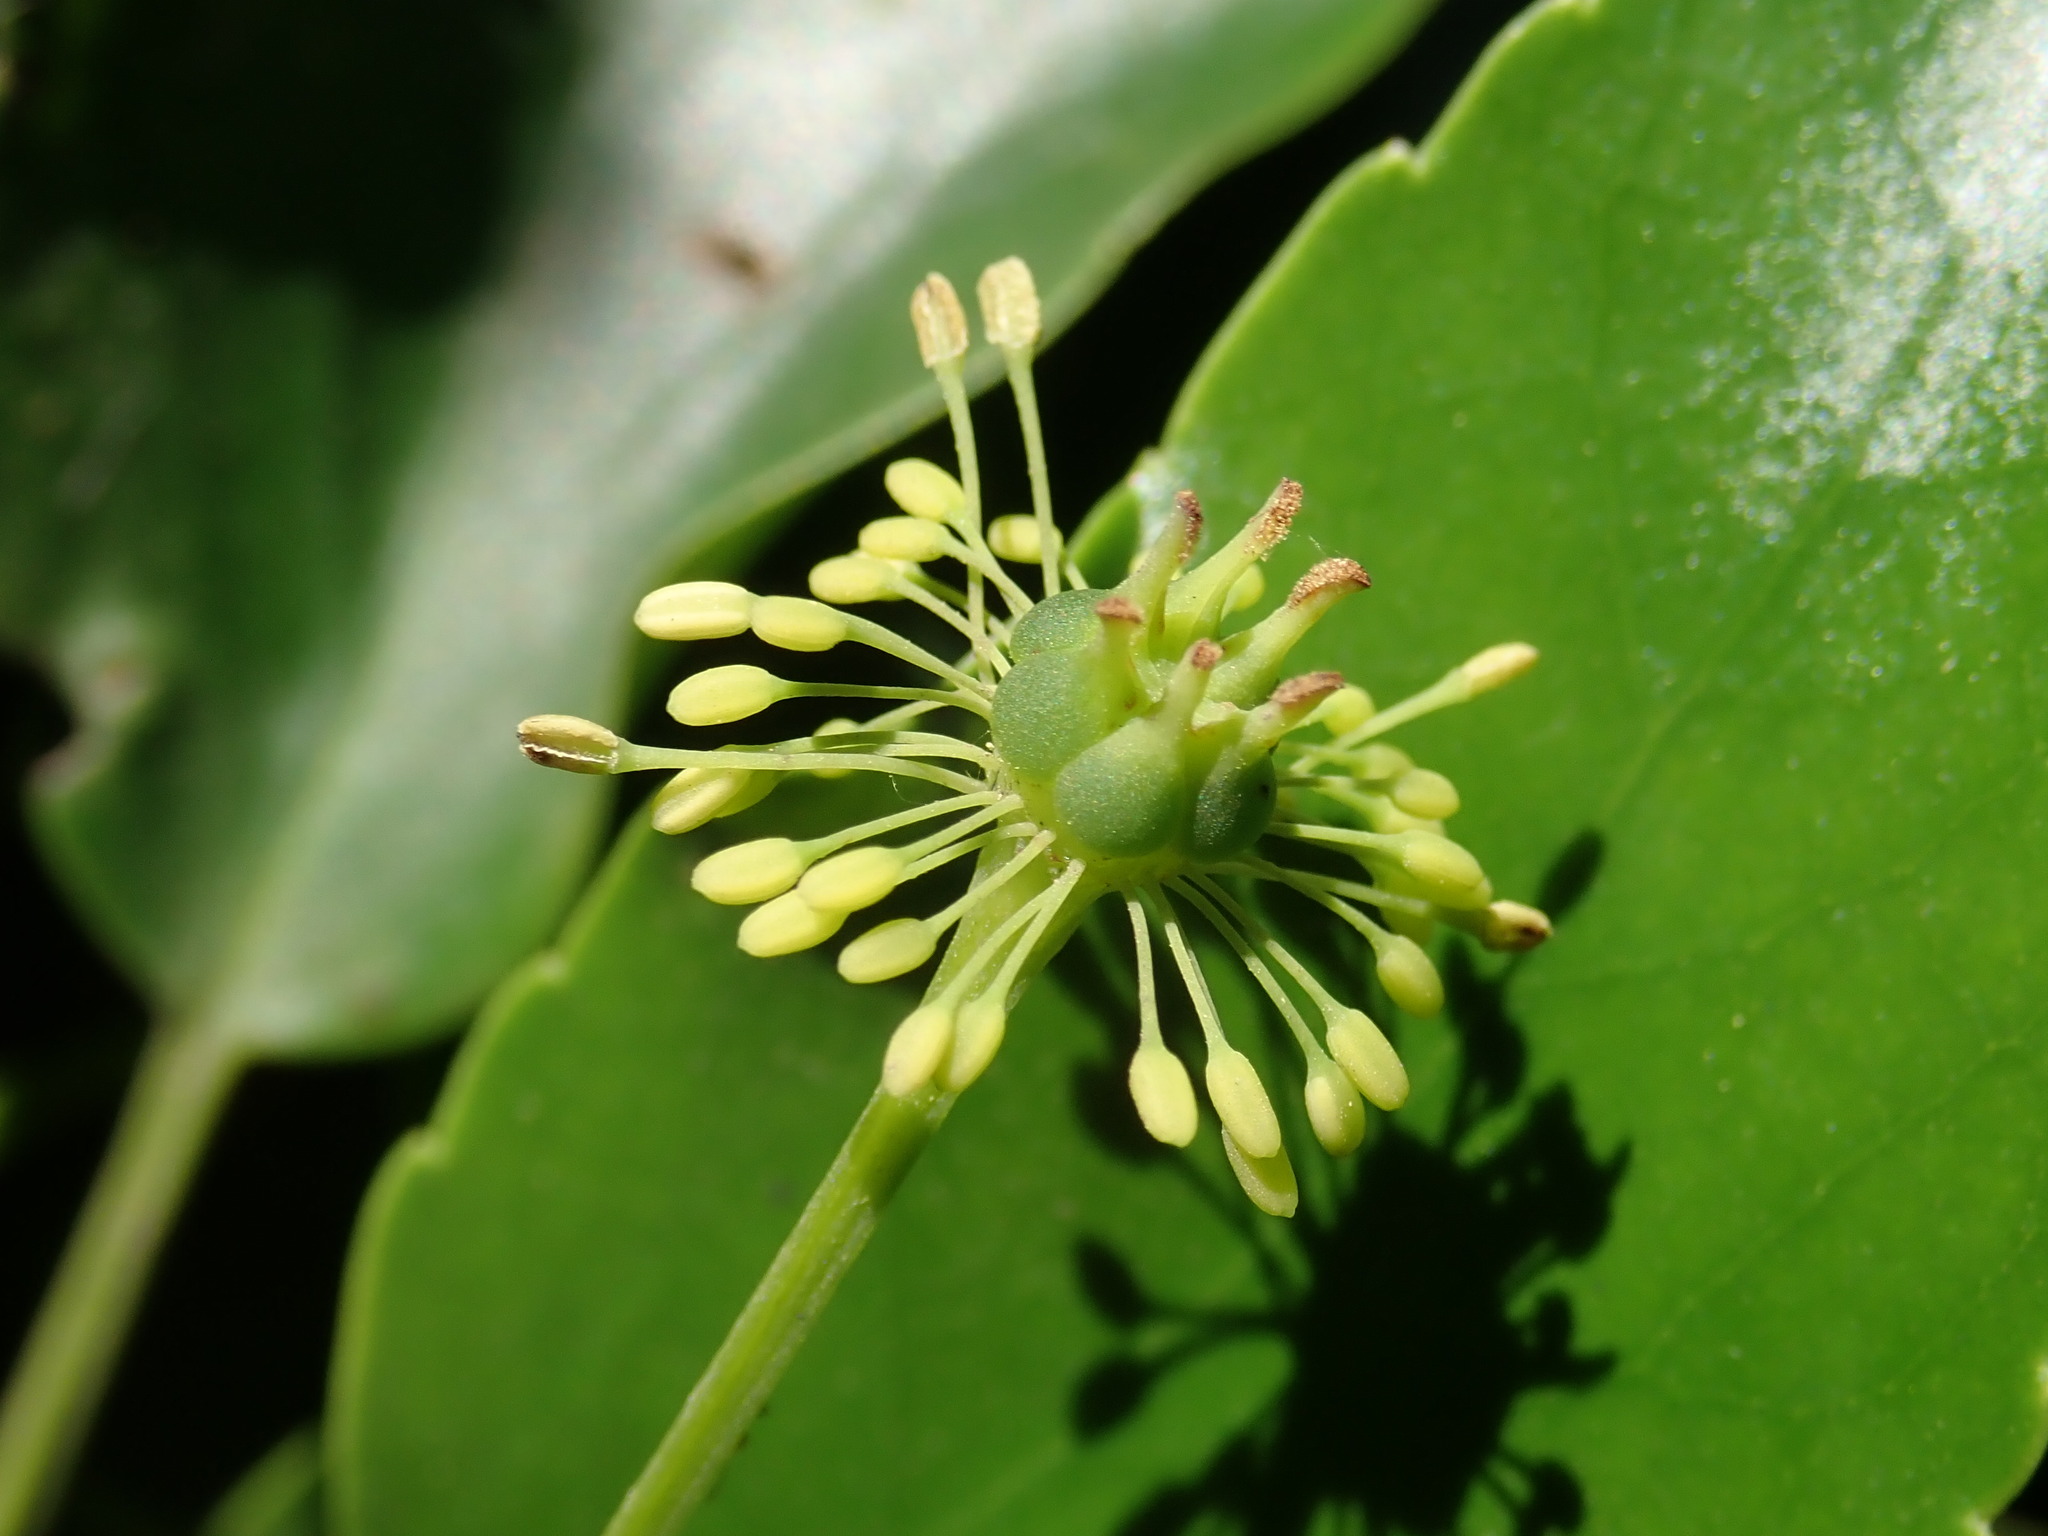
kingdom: Plantae
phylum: Tracheophyta
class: Magnoliopsida
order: Trochodendrales
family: Trochodendraceae
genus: Trochodendron
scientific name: Trochodendron aralioides
